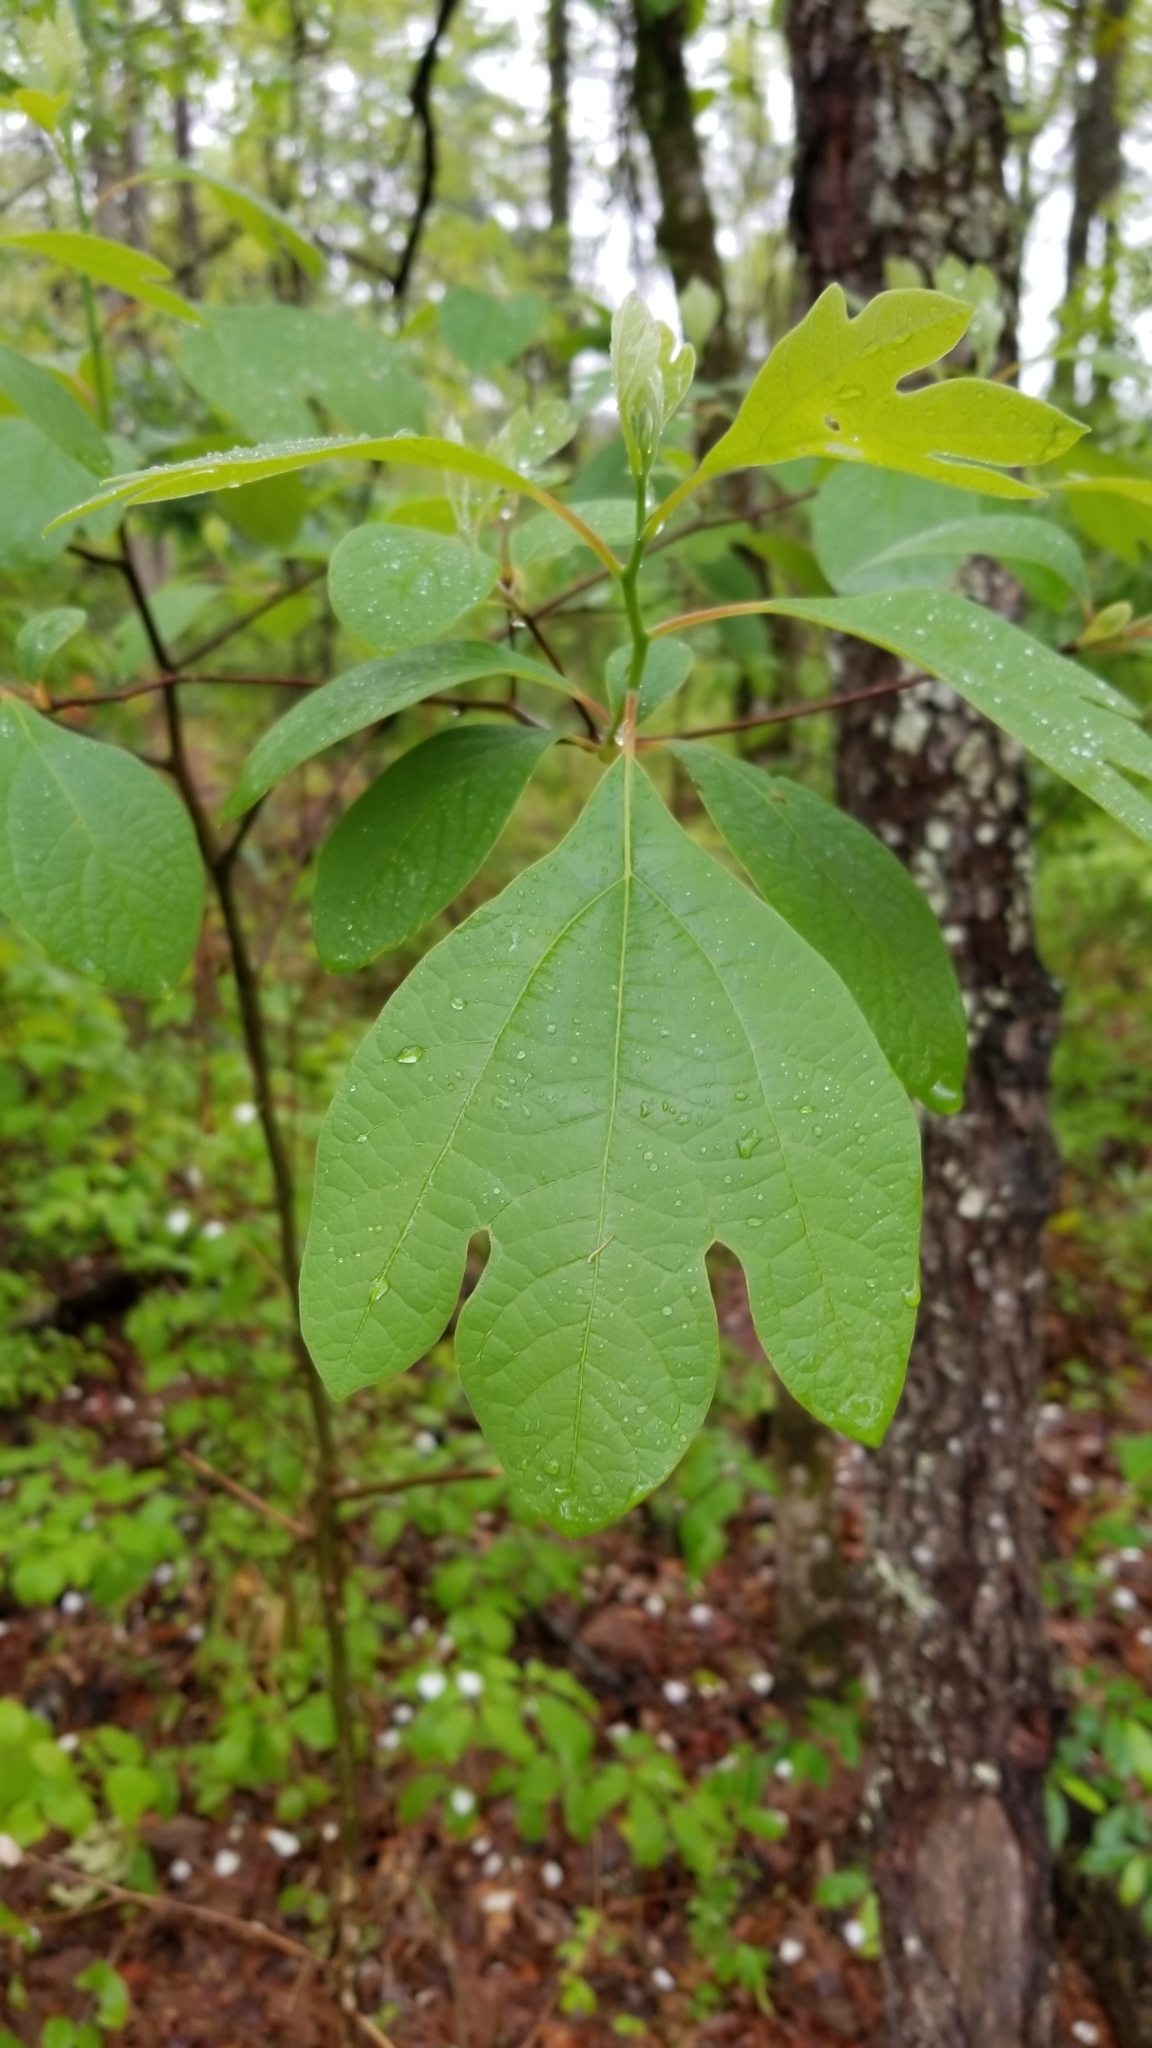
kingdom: Plantae
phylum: Tracheophyta
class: Magnoliopsida
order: Laurales
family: Lauraceae
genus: Sassafras
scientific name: Sassafras albidum
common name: Sassafras
